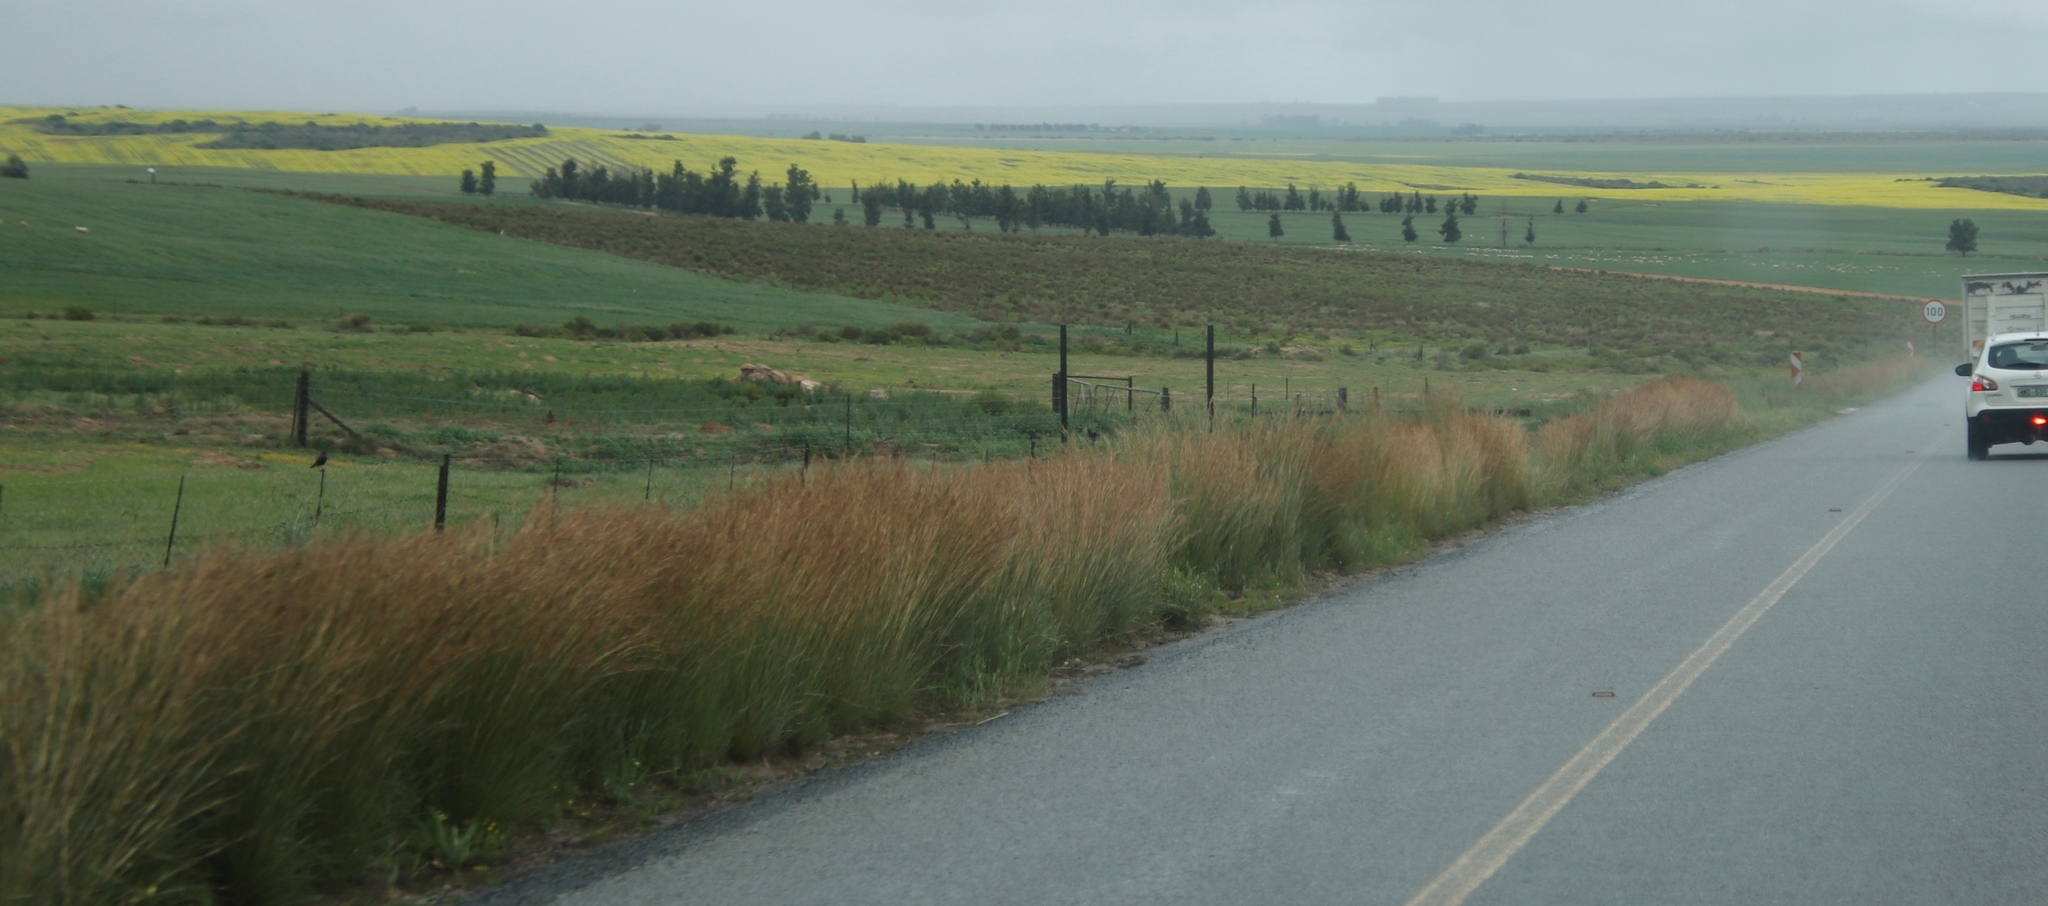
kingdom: Plantae
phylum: Tracheophyta
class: Liliopsida
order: Poales
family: Poaceae
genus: Hyparrhenia
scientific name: Hyparrhenia hirta
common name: Thatching grass
